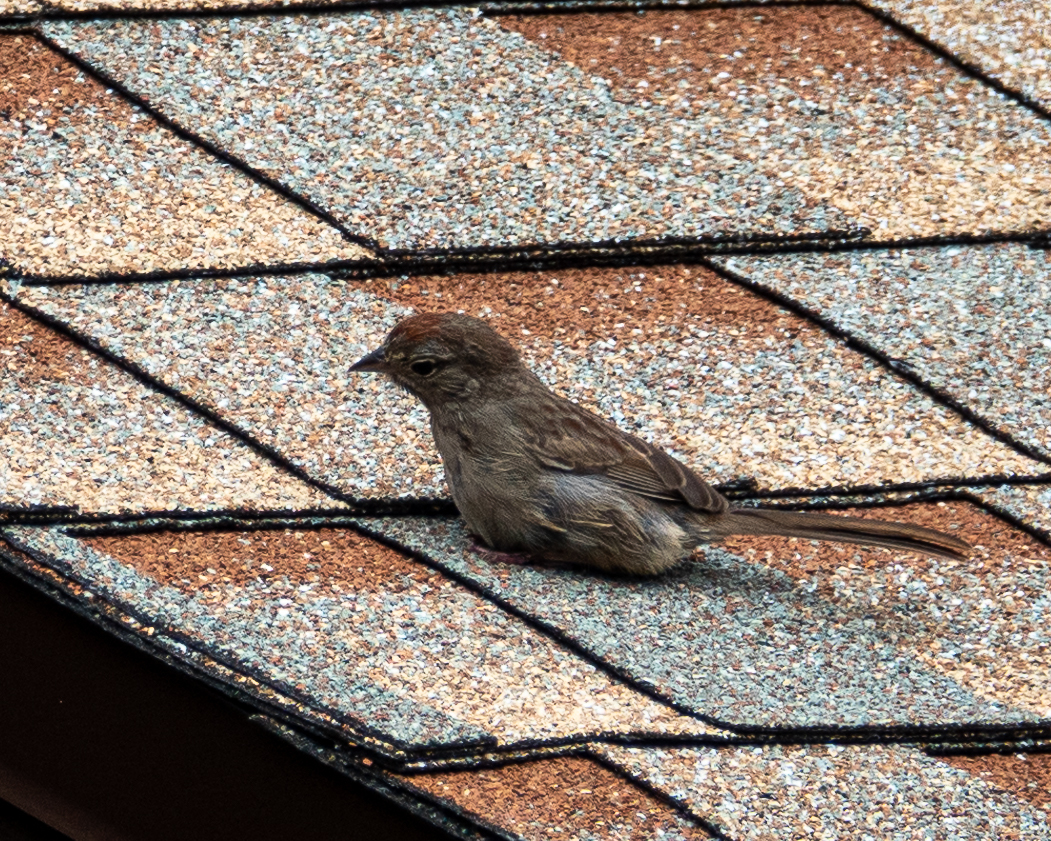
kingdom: Animalia
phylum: Chordata
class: Aves
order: Passeriformes
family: Passerellidae
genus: Aimophila
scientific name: Aimophila ruficeps
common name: Rufous-crowned sparrow
